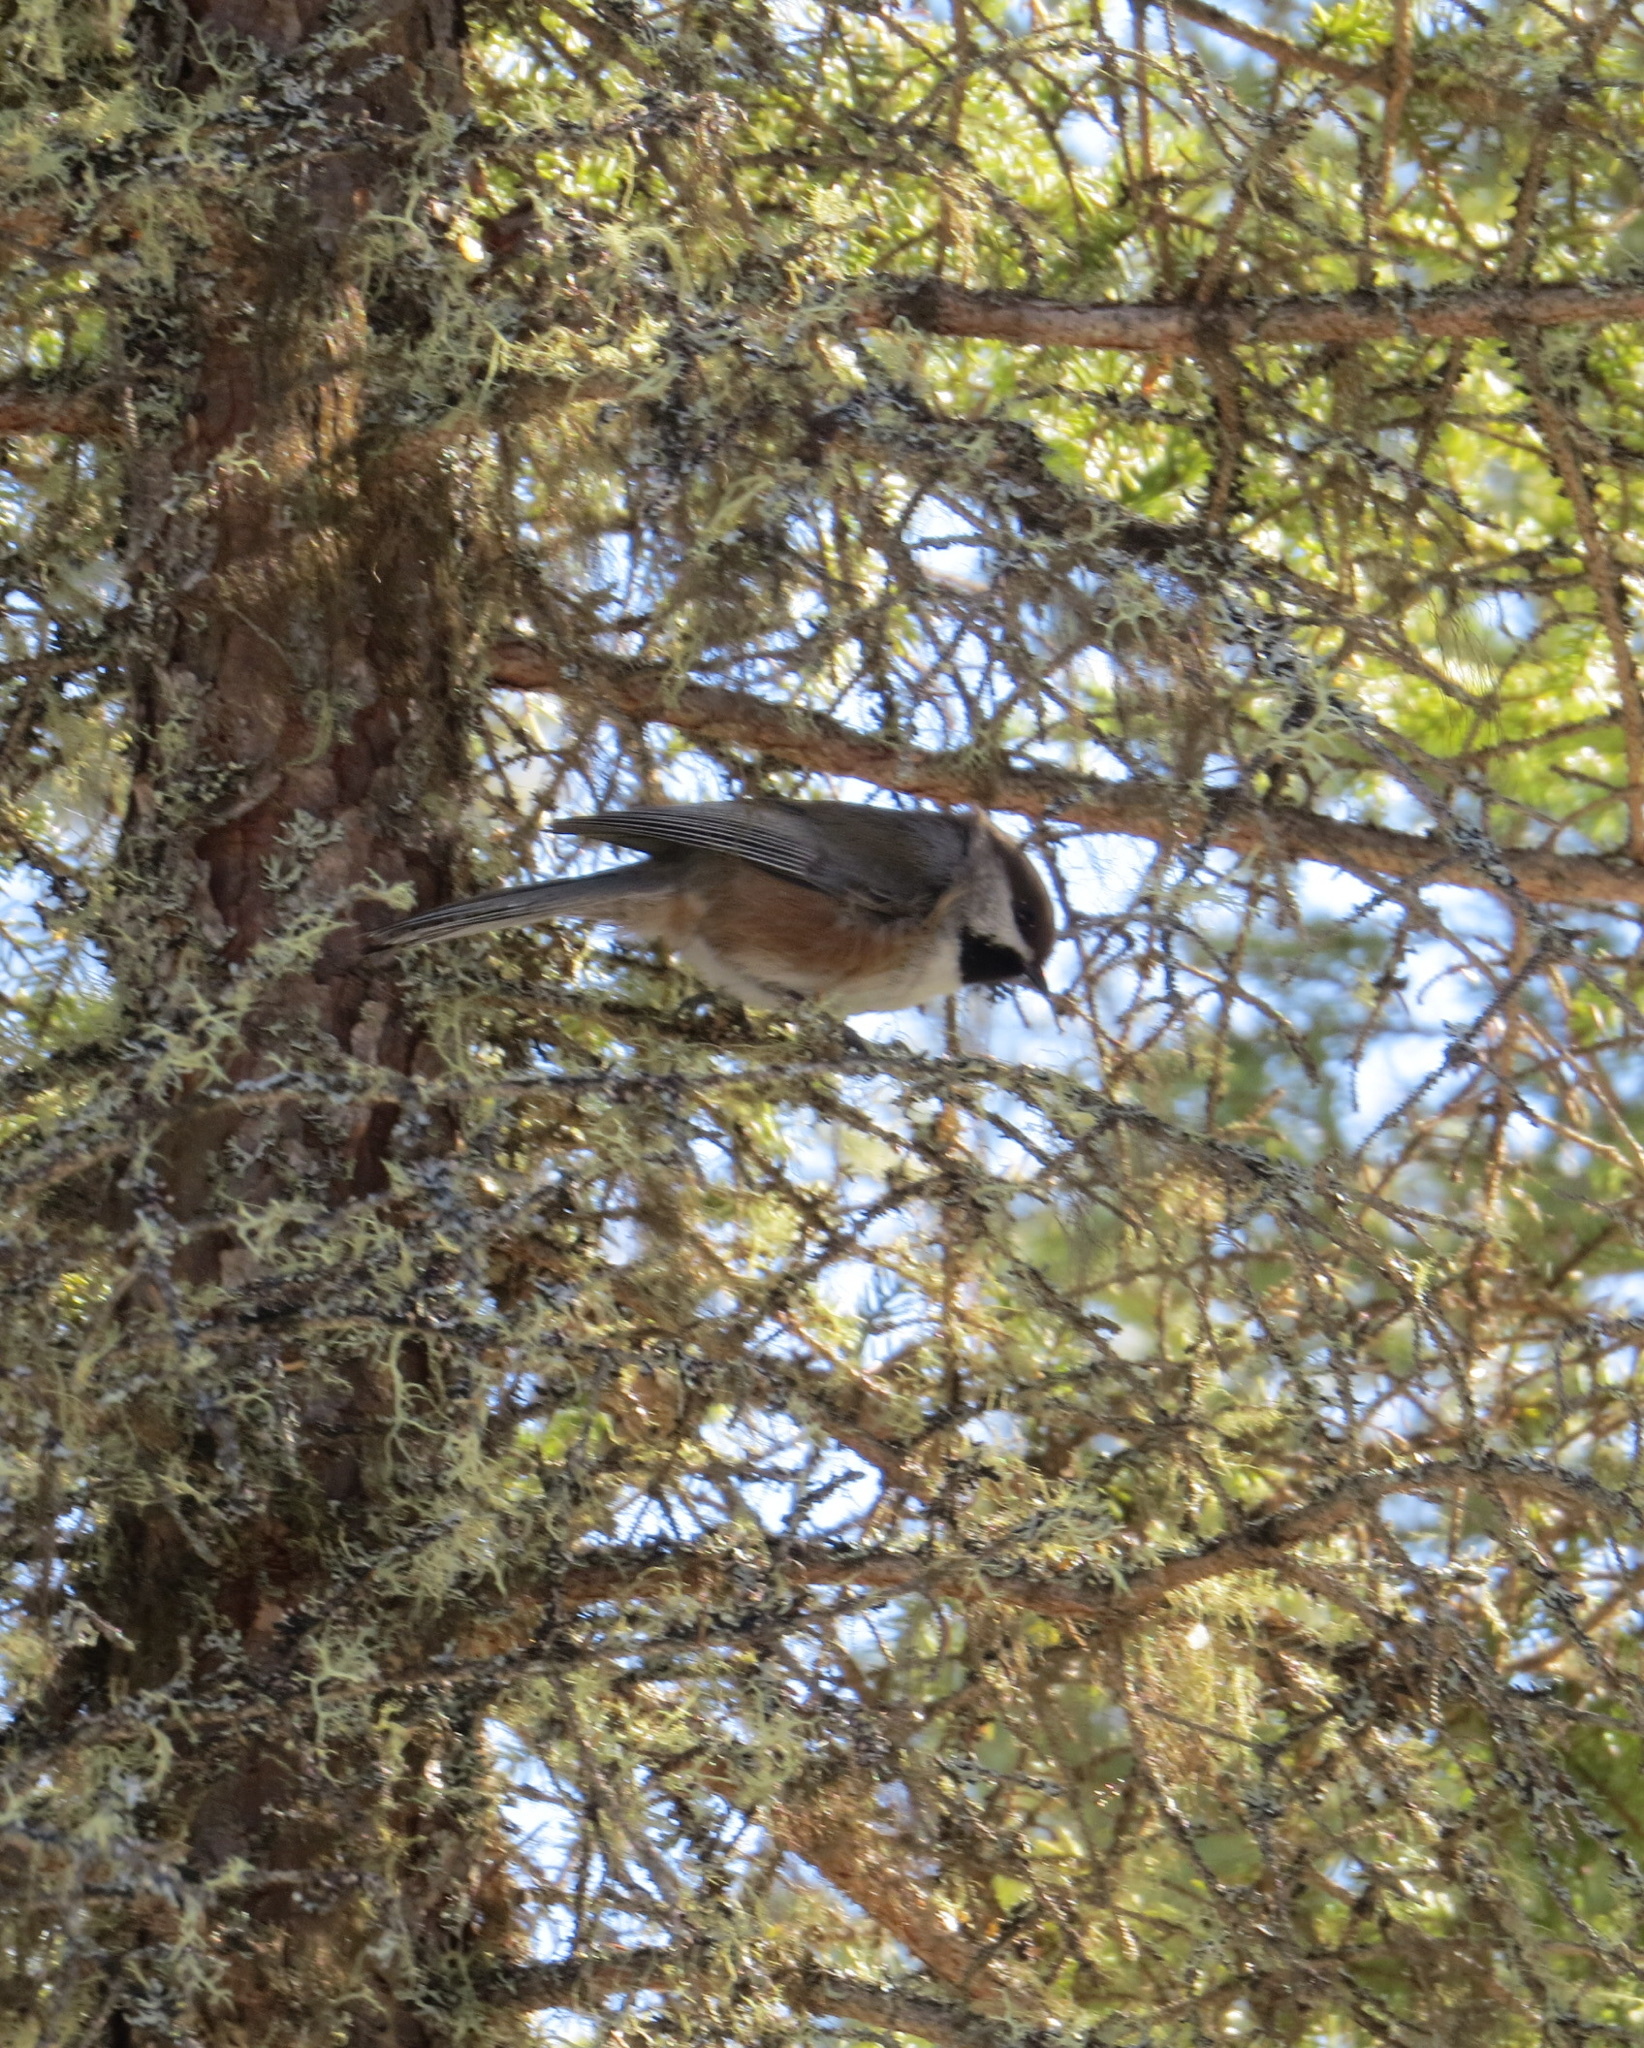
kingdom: Animalia
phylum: Chordata
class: Aves
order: Passeriformes
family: Paridae
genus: Poecile
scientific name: Poecile hudsonicus
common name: Boreal chickadee
